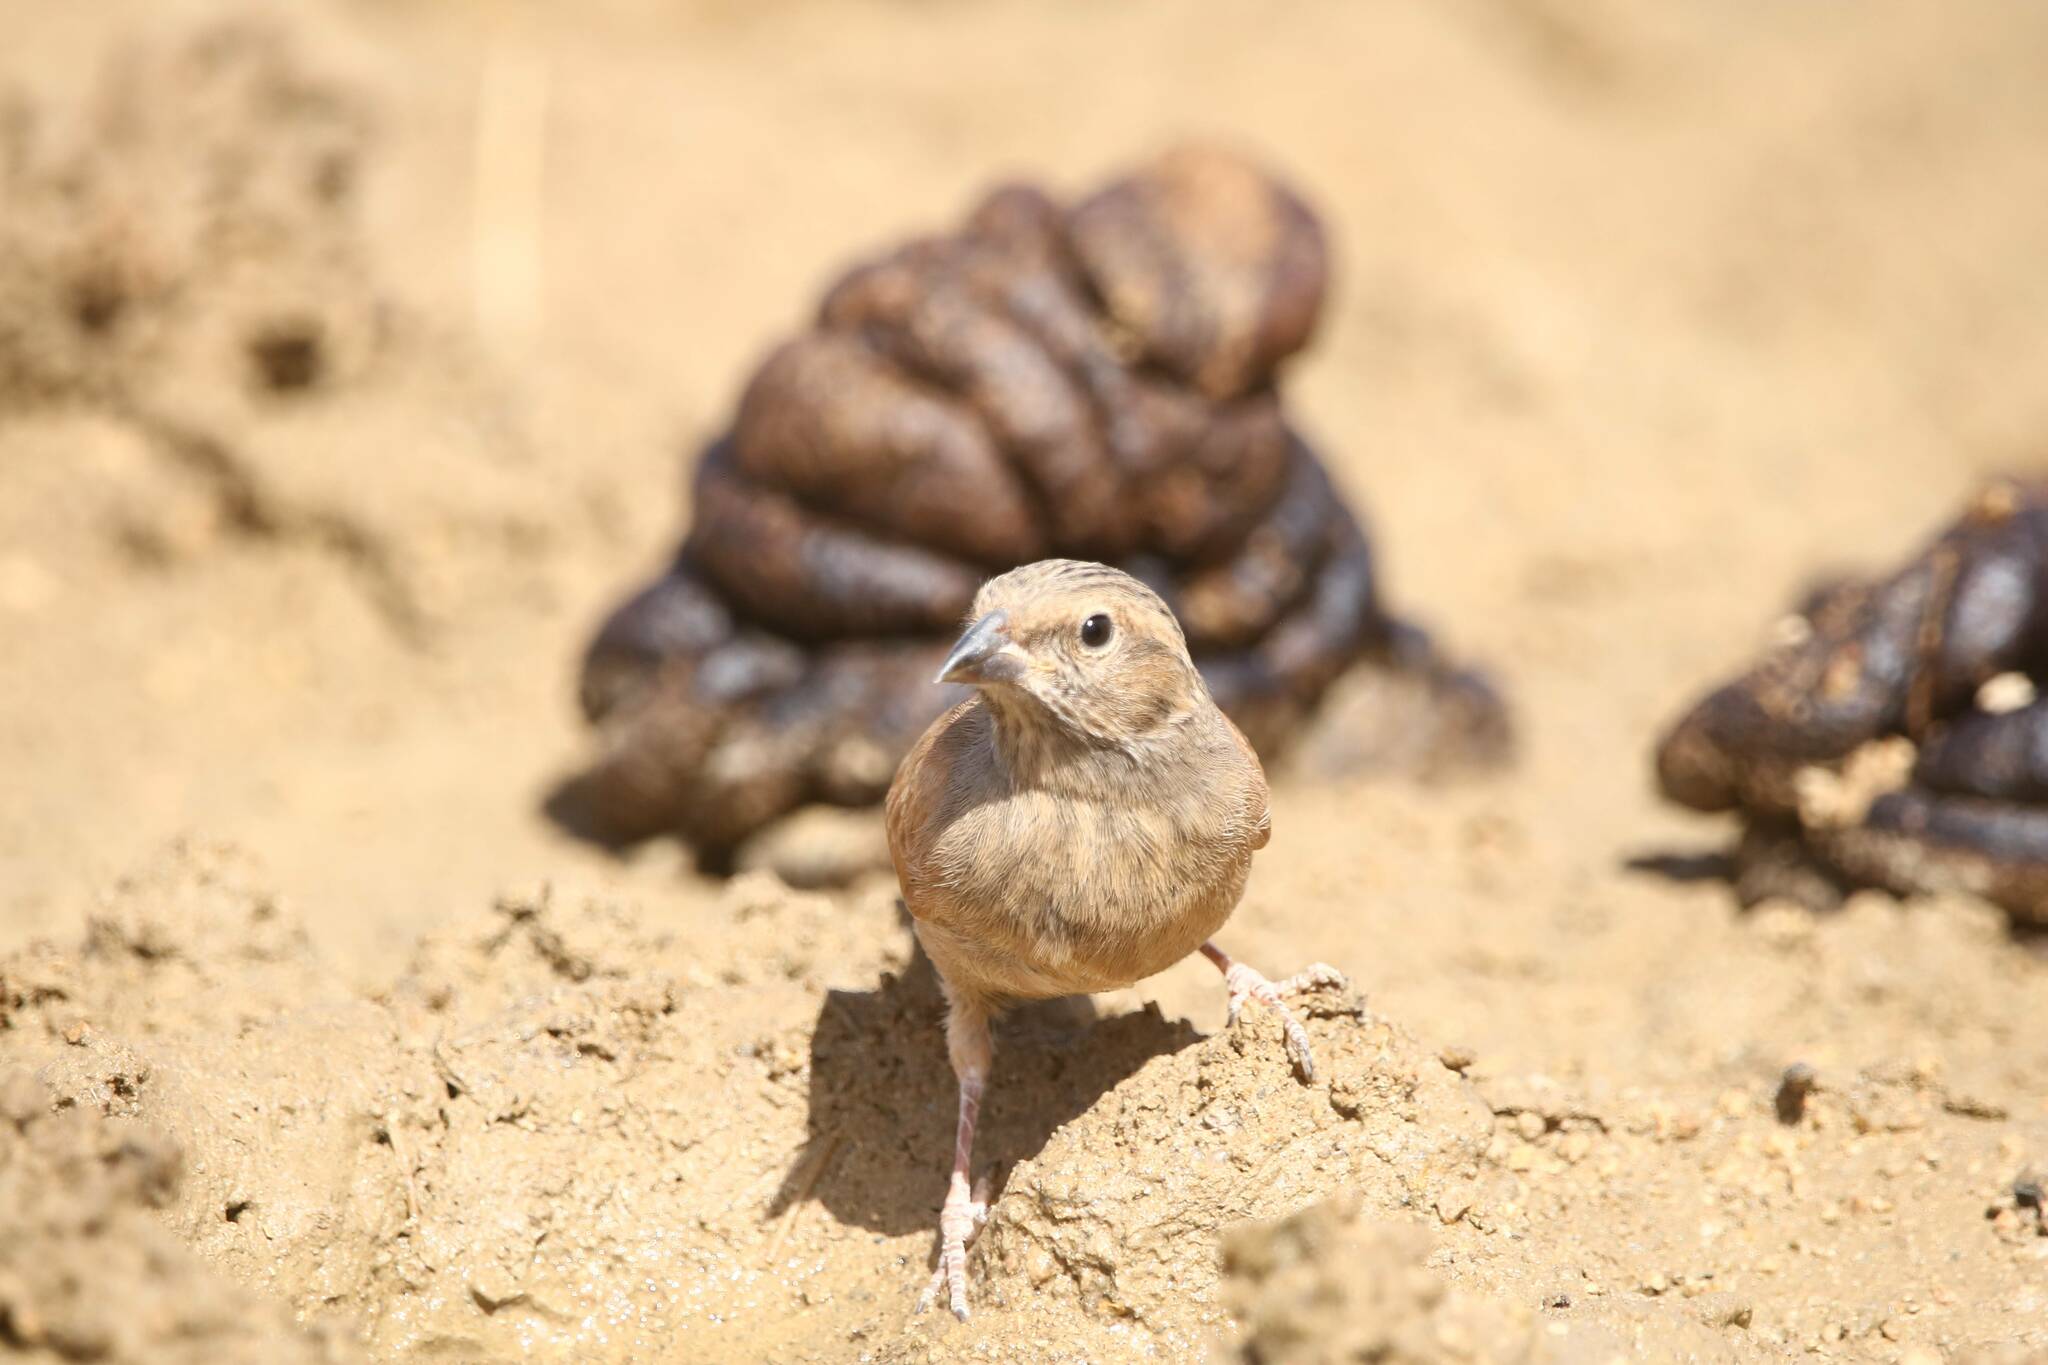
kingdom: Animalia
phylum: Chordata
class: Aves
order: Passeriformes
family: Emberizidae
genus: Emberiza
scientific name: Emberiza sahari
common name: House bunting
